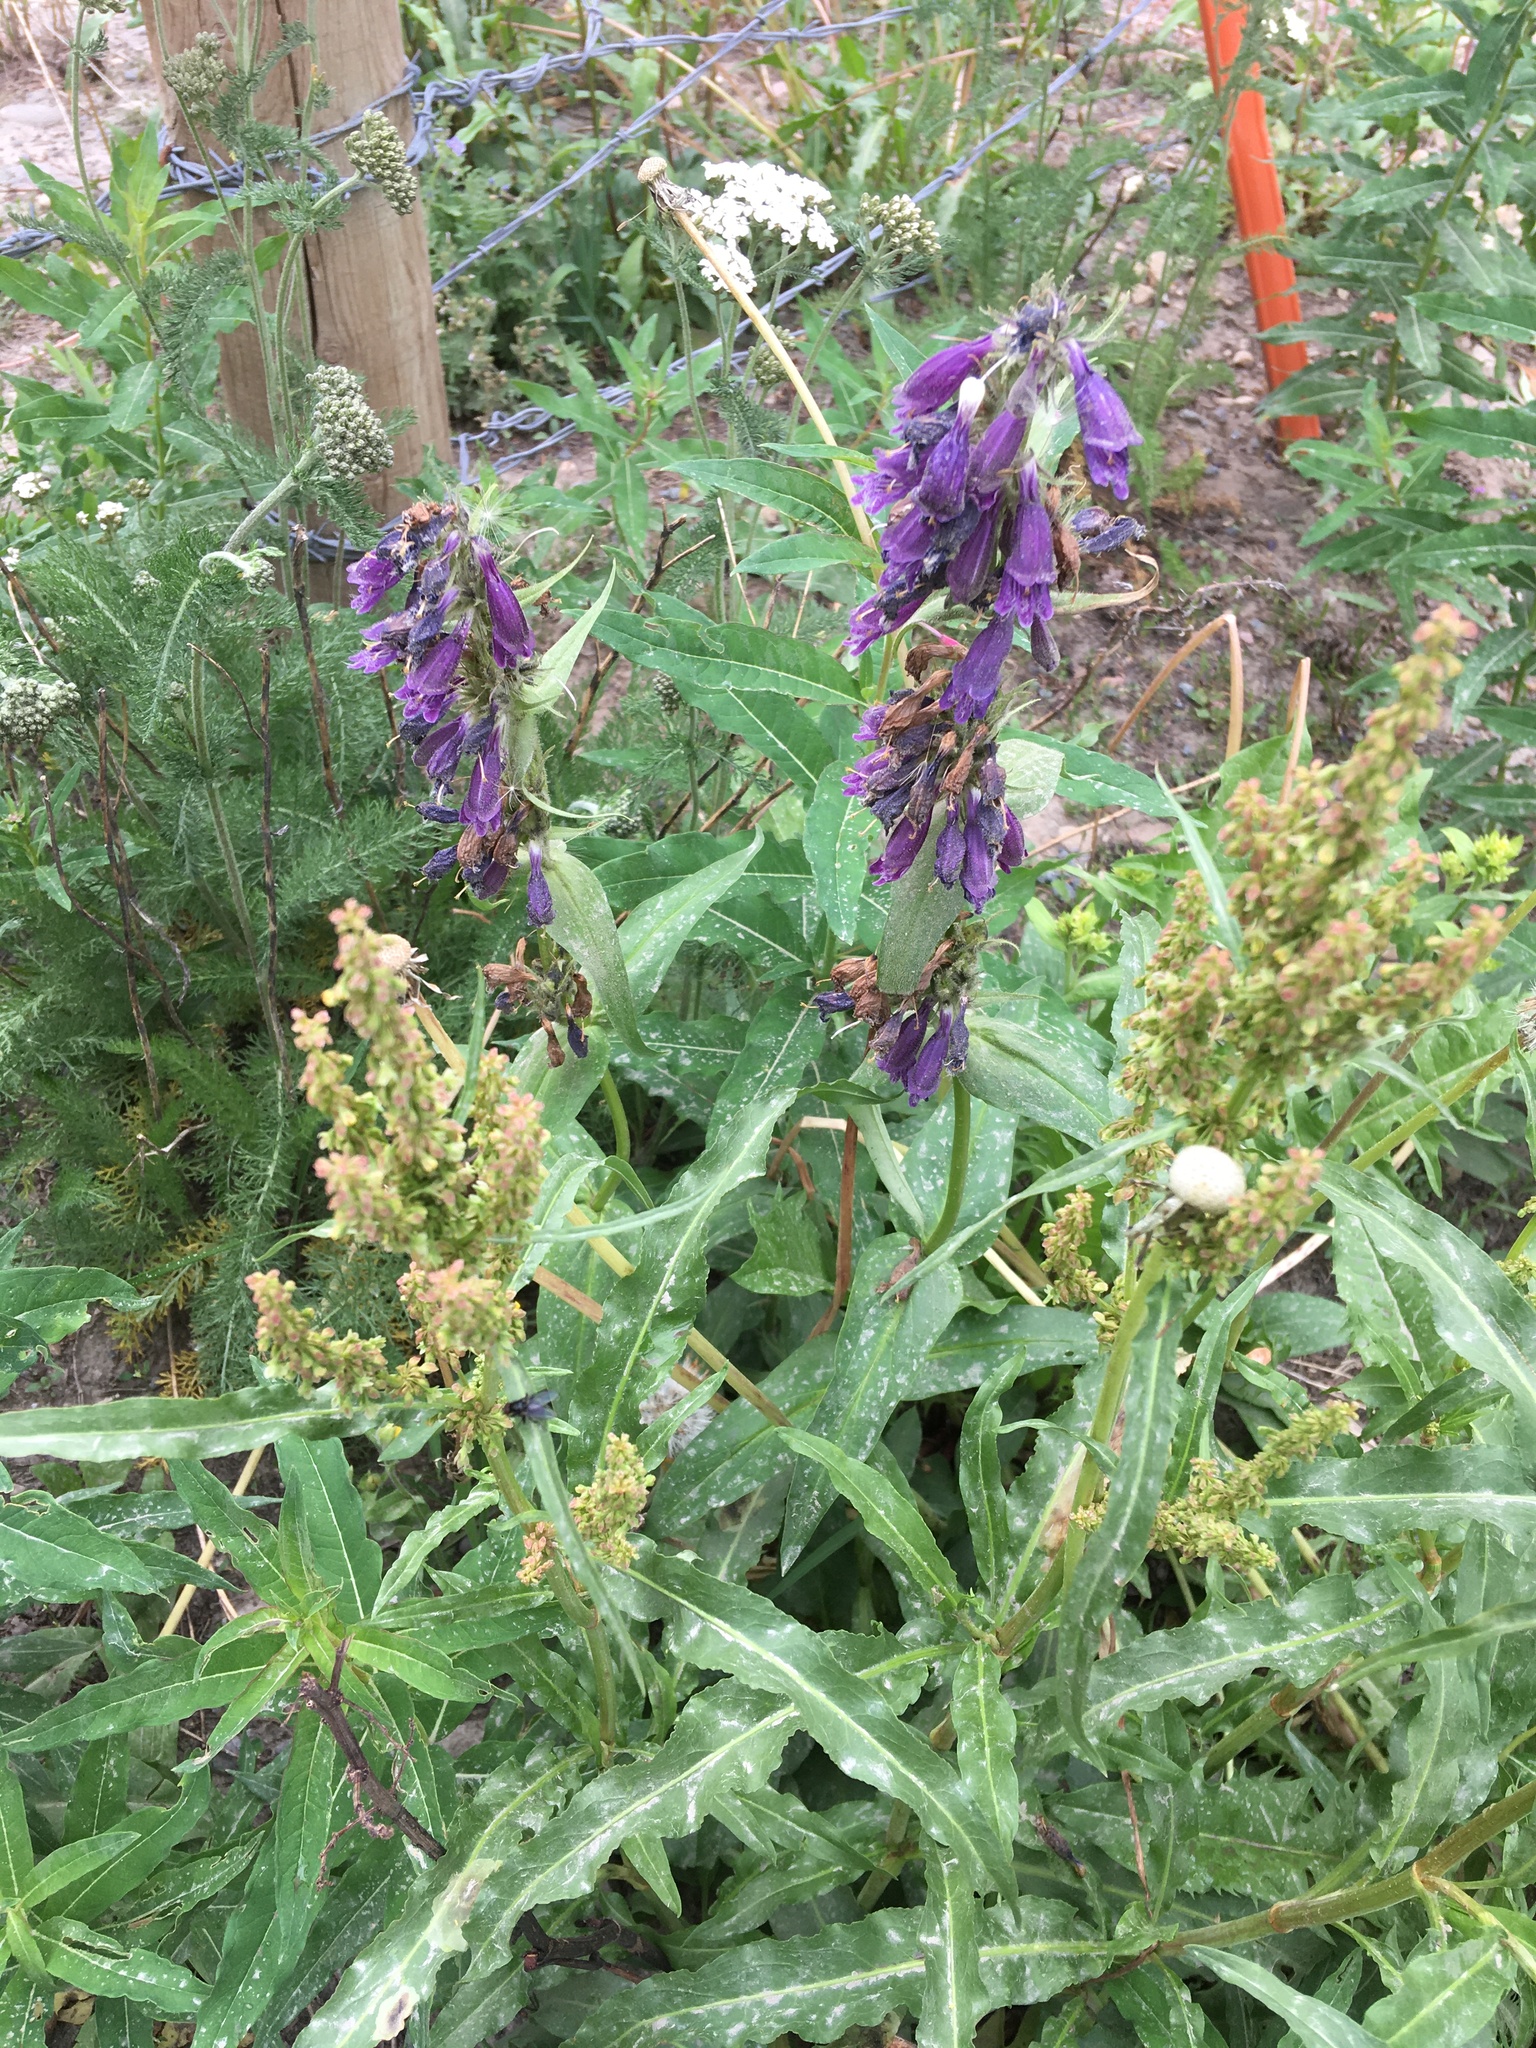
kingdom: Plantae
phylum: Tracheophyta
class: Magnoliopsida
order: Lamiales
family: Plantaginaceae
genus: Penstemon
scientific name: Penstemon whippleanus
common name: Whipple's penstemon
